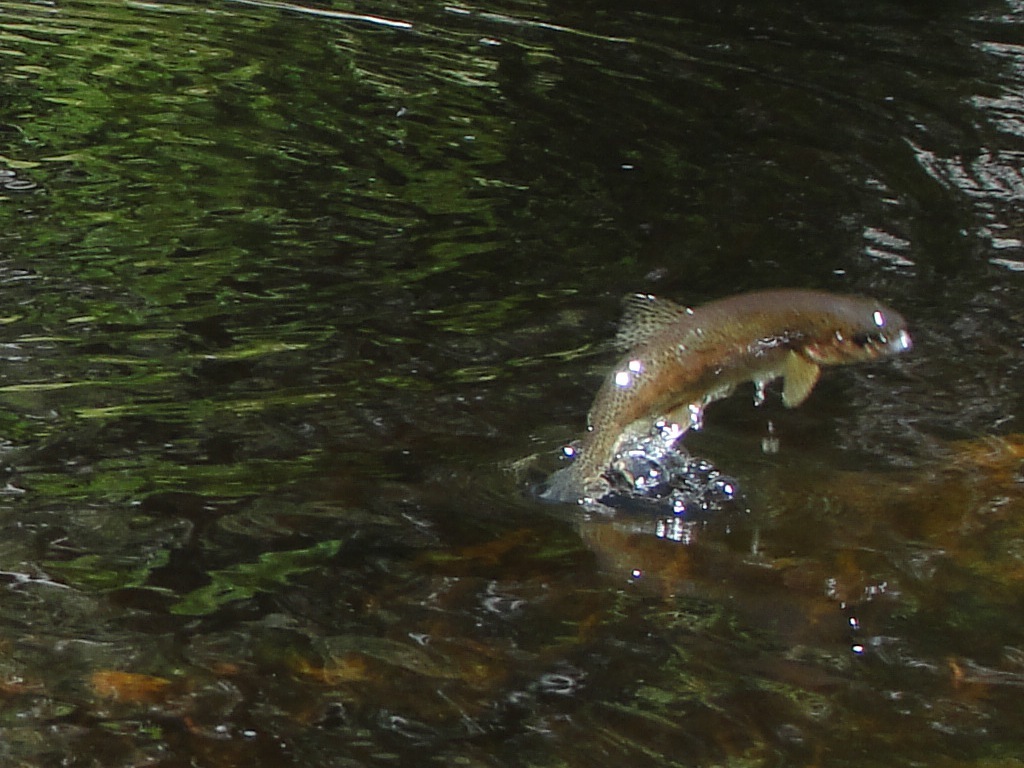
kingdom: Animalia
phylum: Chordata
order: Salmoniformes
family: Salmonidae
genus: Oncorhynchus
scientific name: Oncorhynchus mykiss
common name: Rainbow trout
